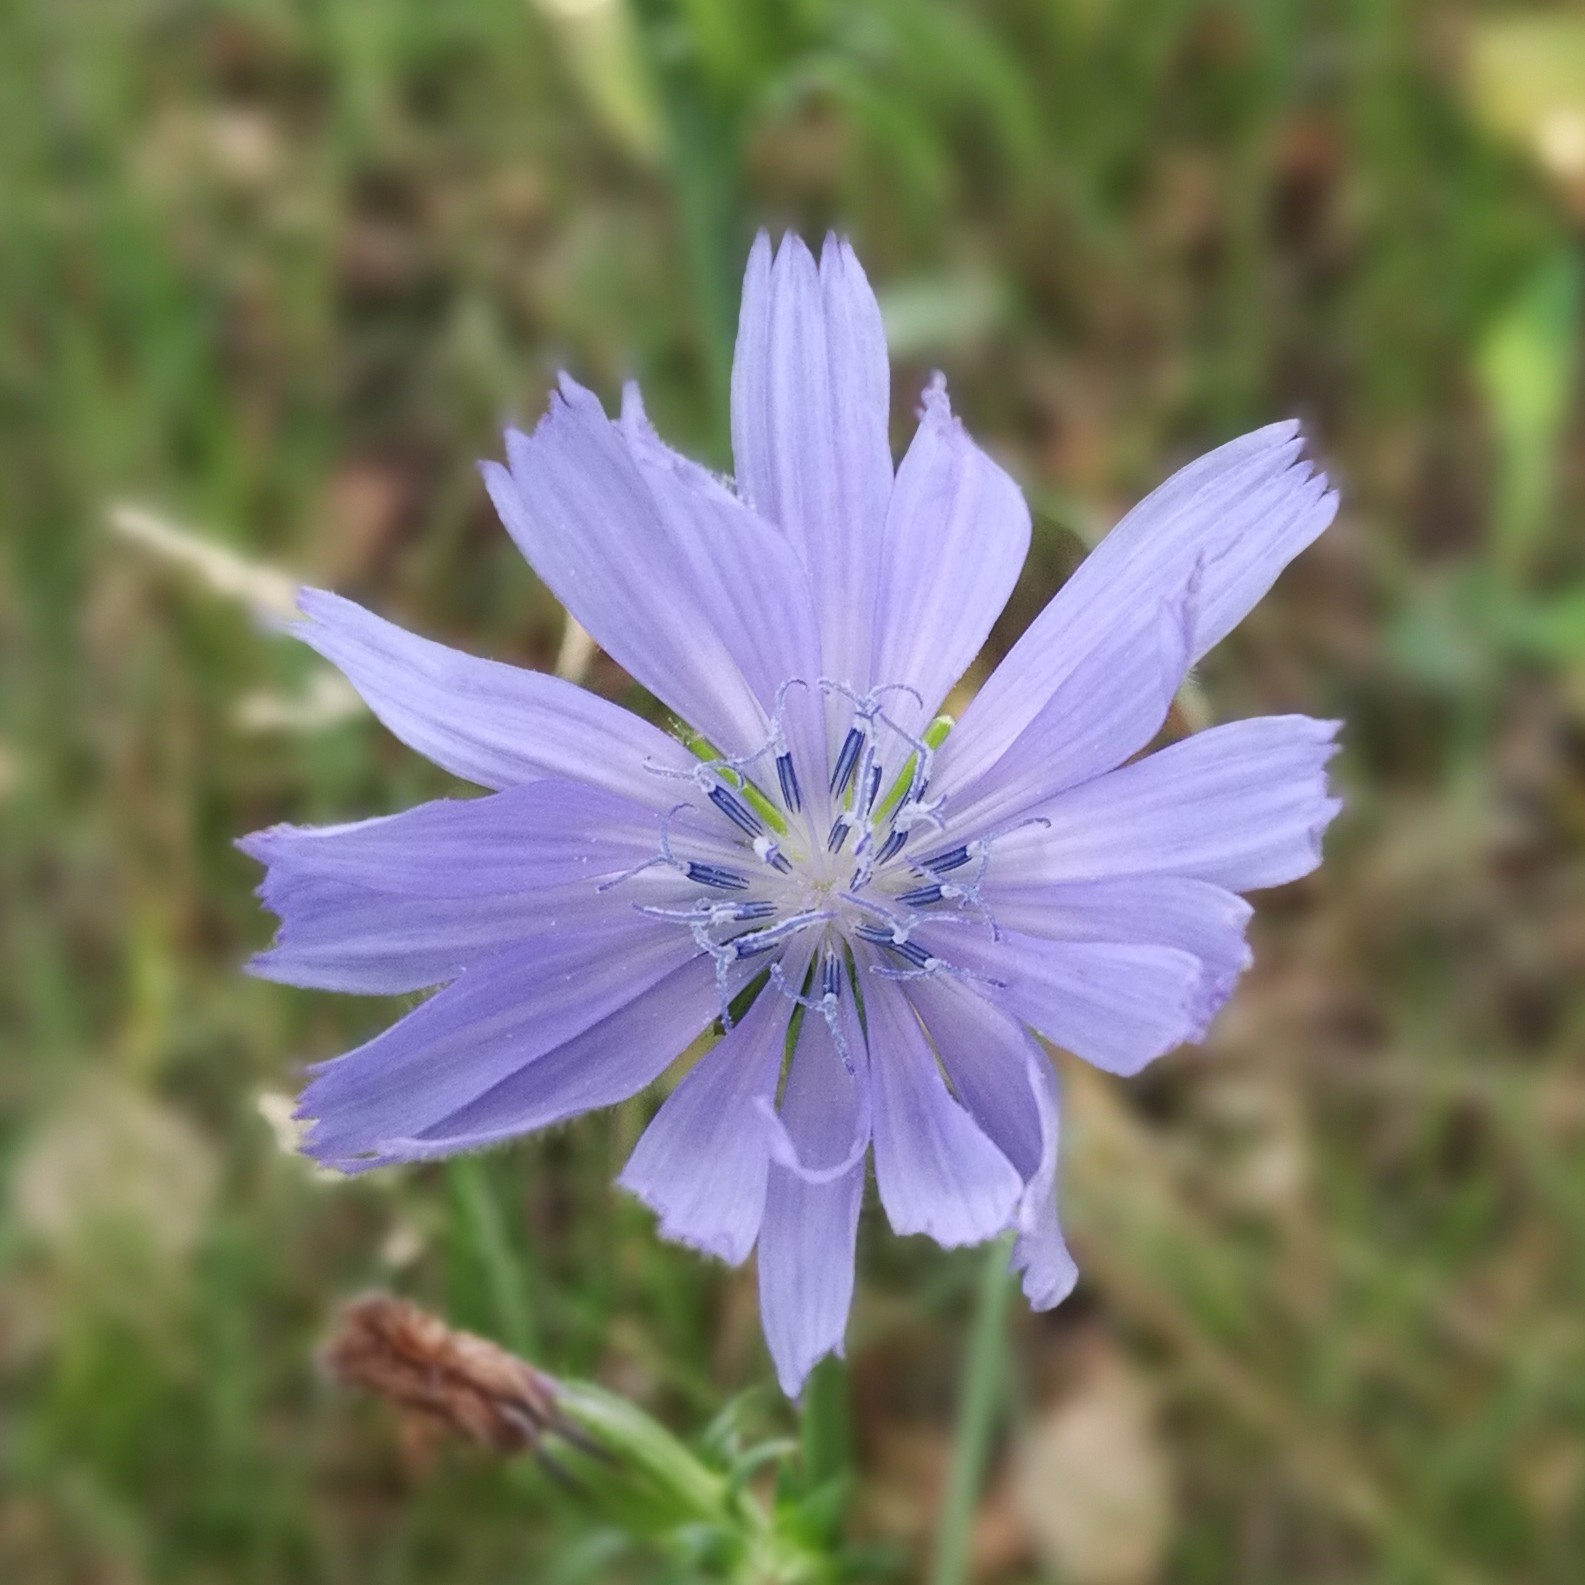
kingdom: Plantae
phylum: Tracheophyta
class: Magnoliopsida
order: Asterales
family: Asteraceae
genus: Cichorium
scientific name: Cichorium intybus
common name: Chicory
